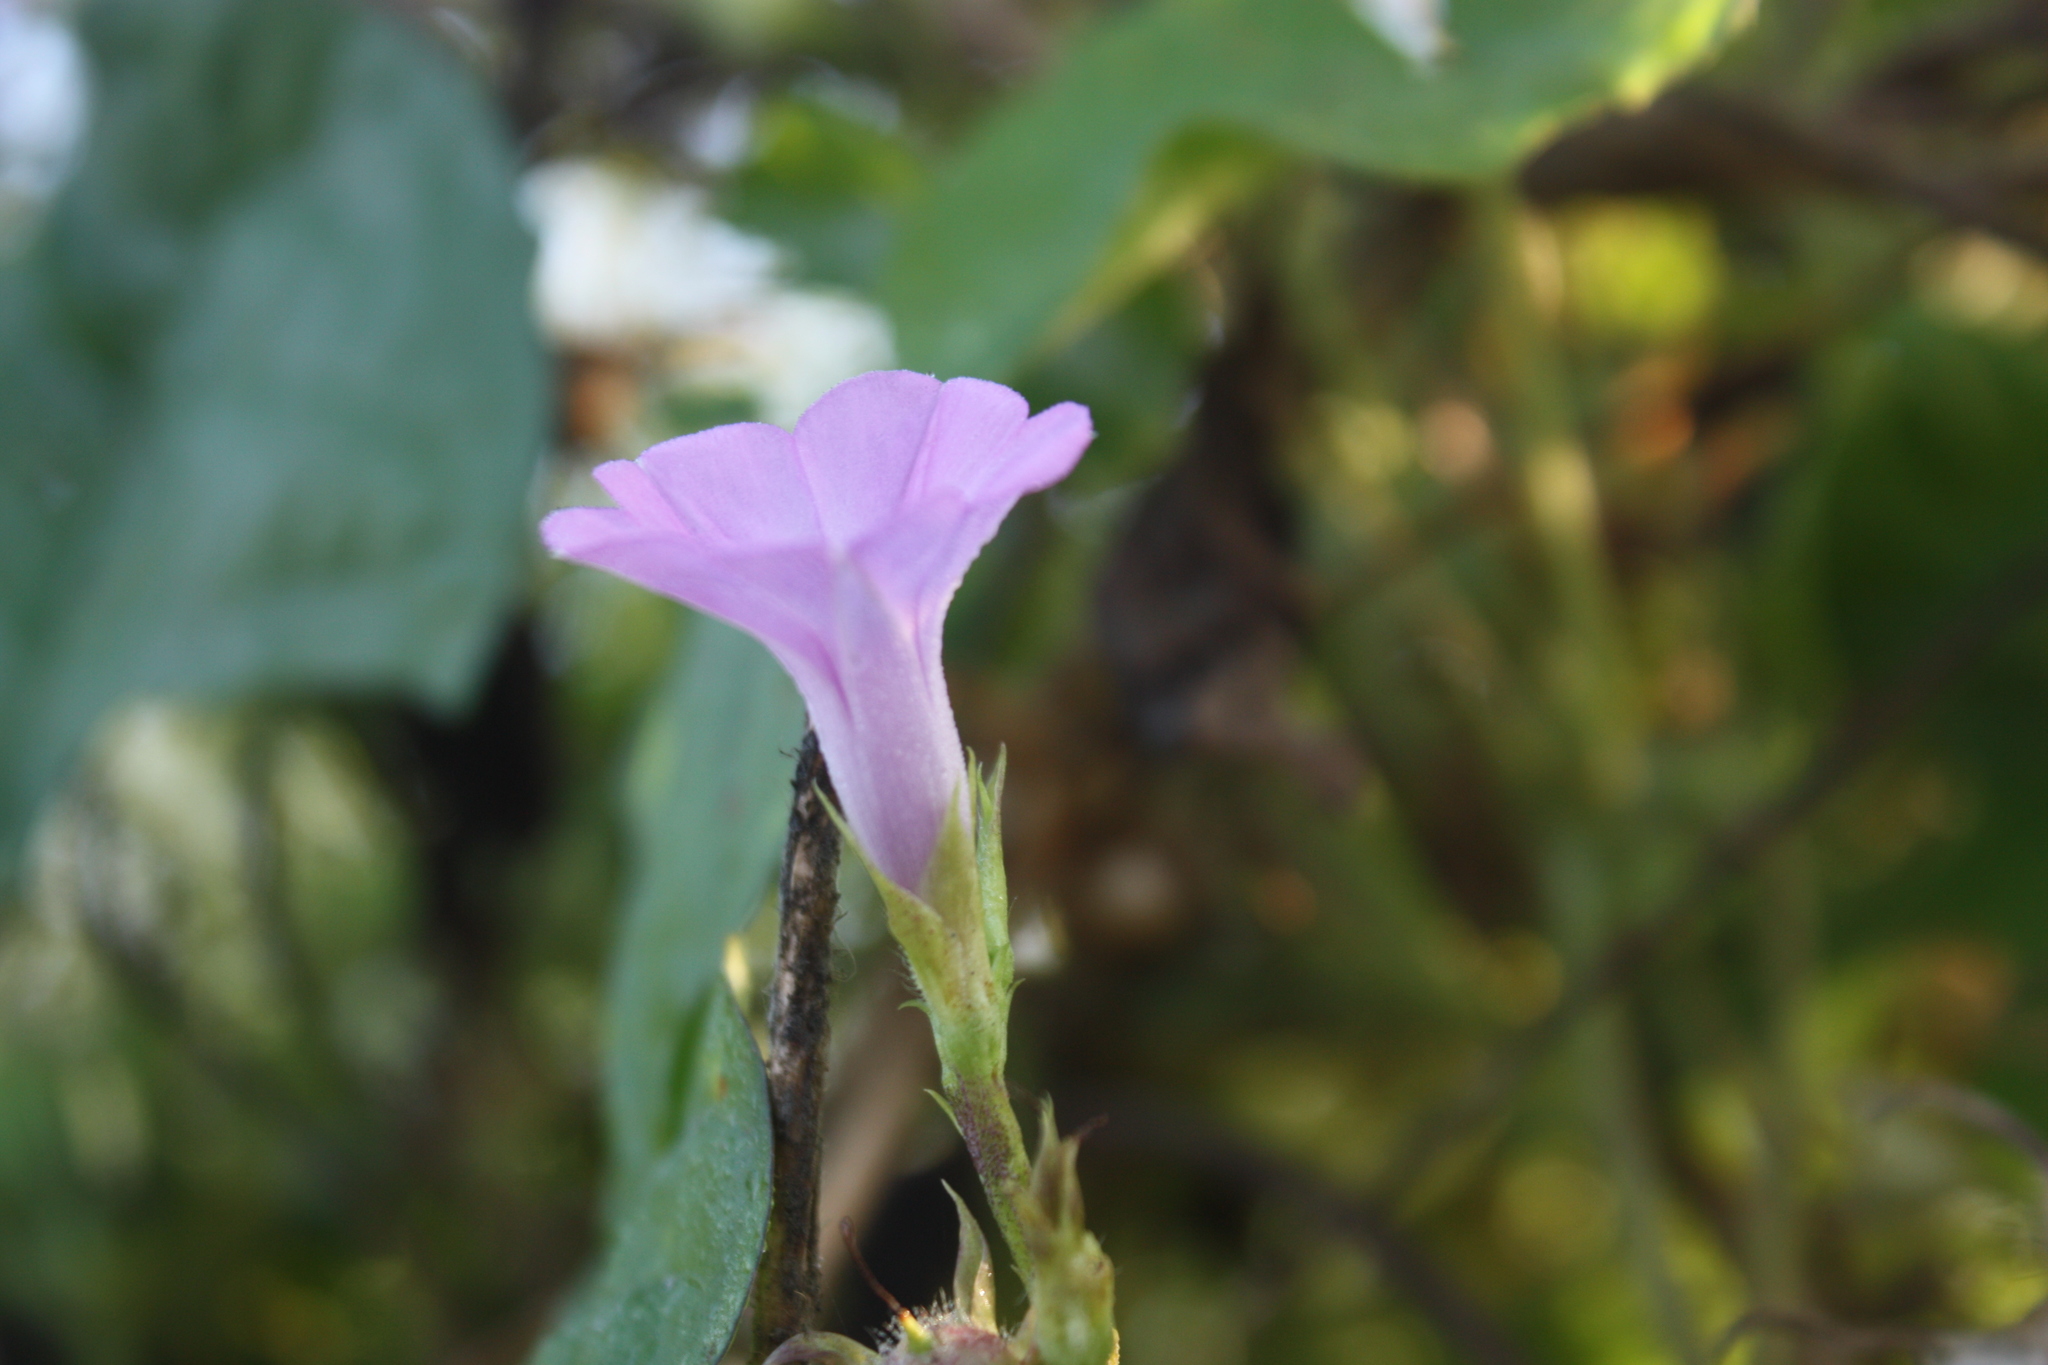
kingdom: Plantae
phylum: Tracheophyta
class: Magnoliopsida
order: Solanales
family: Convolvulaceae
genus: Ipomoea
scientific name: Ipomoea triloba
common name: Little-bell
